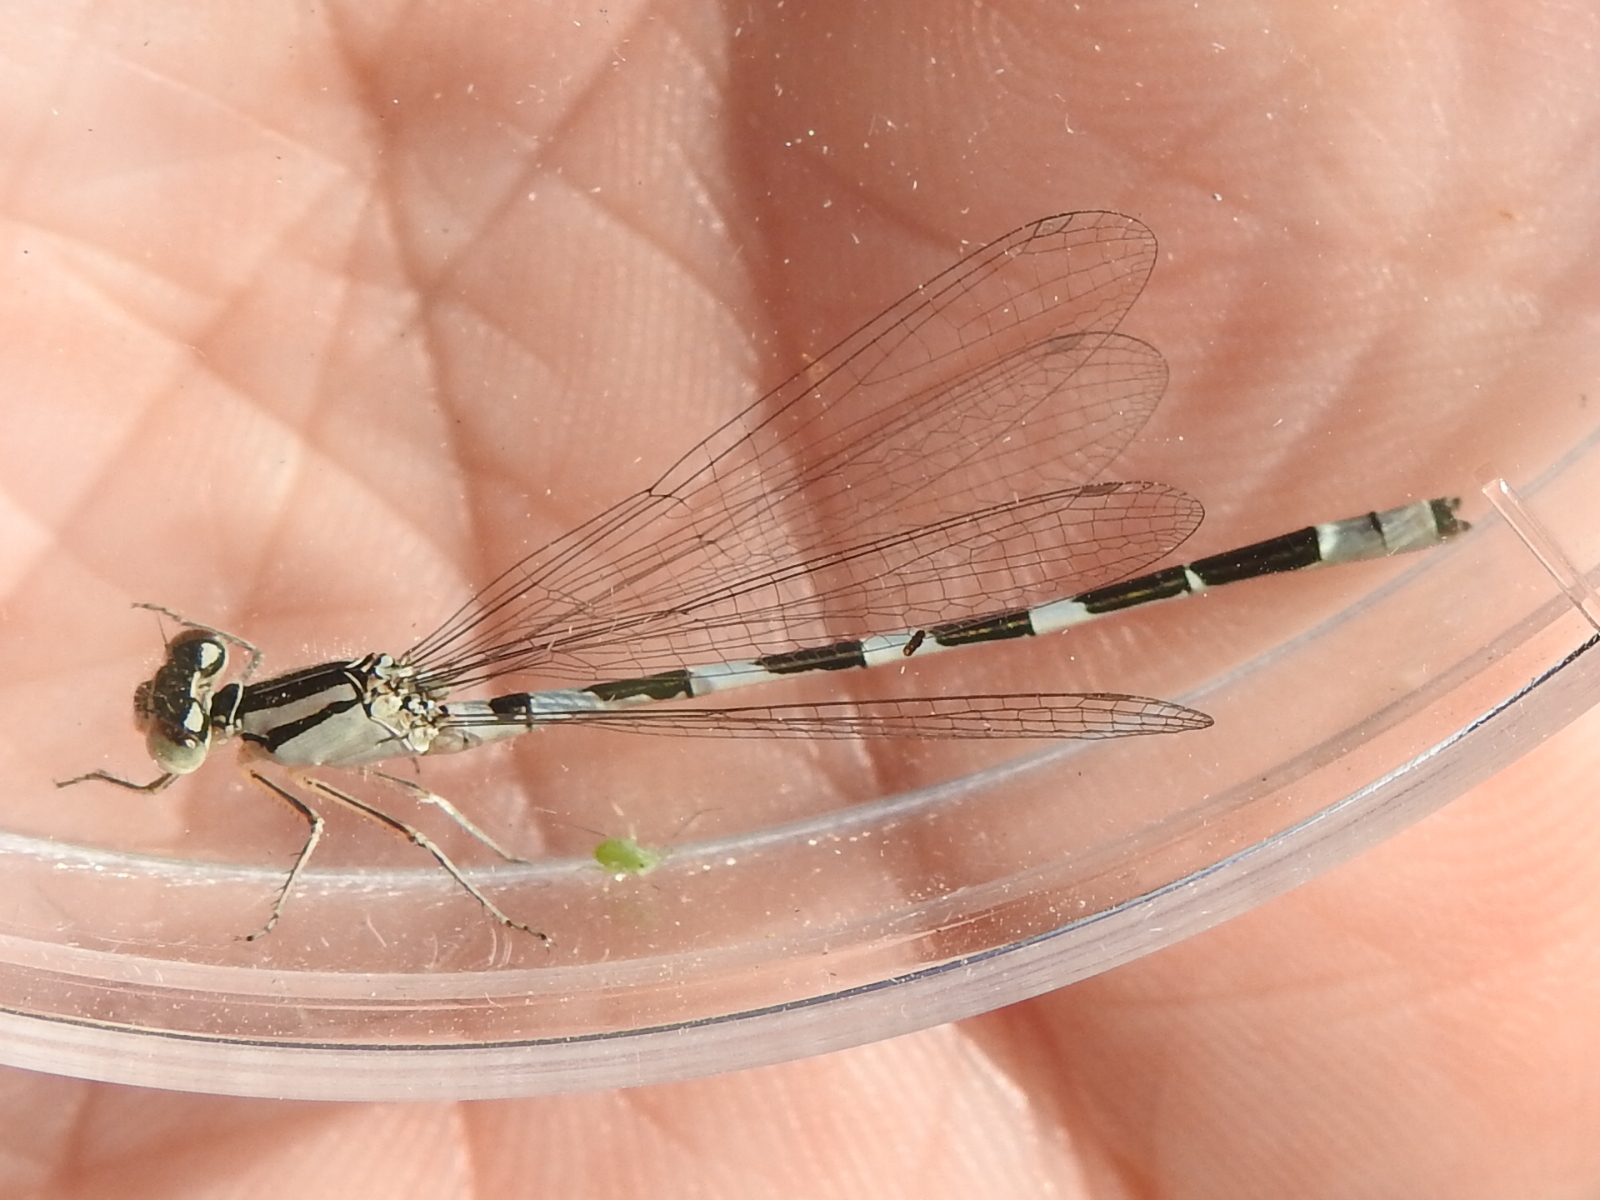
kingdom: Animalia
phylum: Arthropoda
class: Insecta
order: Odonata
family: Coenagrionidae
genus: Enallagma
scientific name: Enallagma carunculatum
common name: Tule bluet
